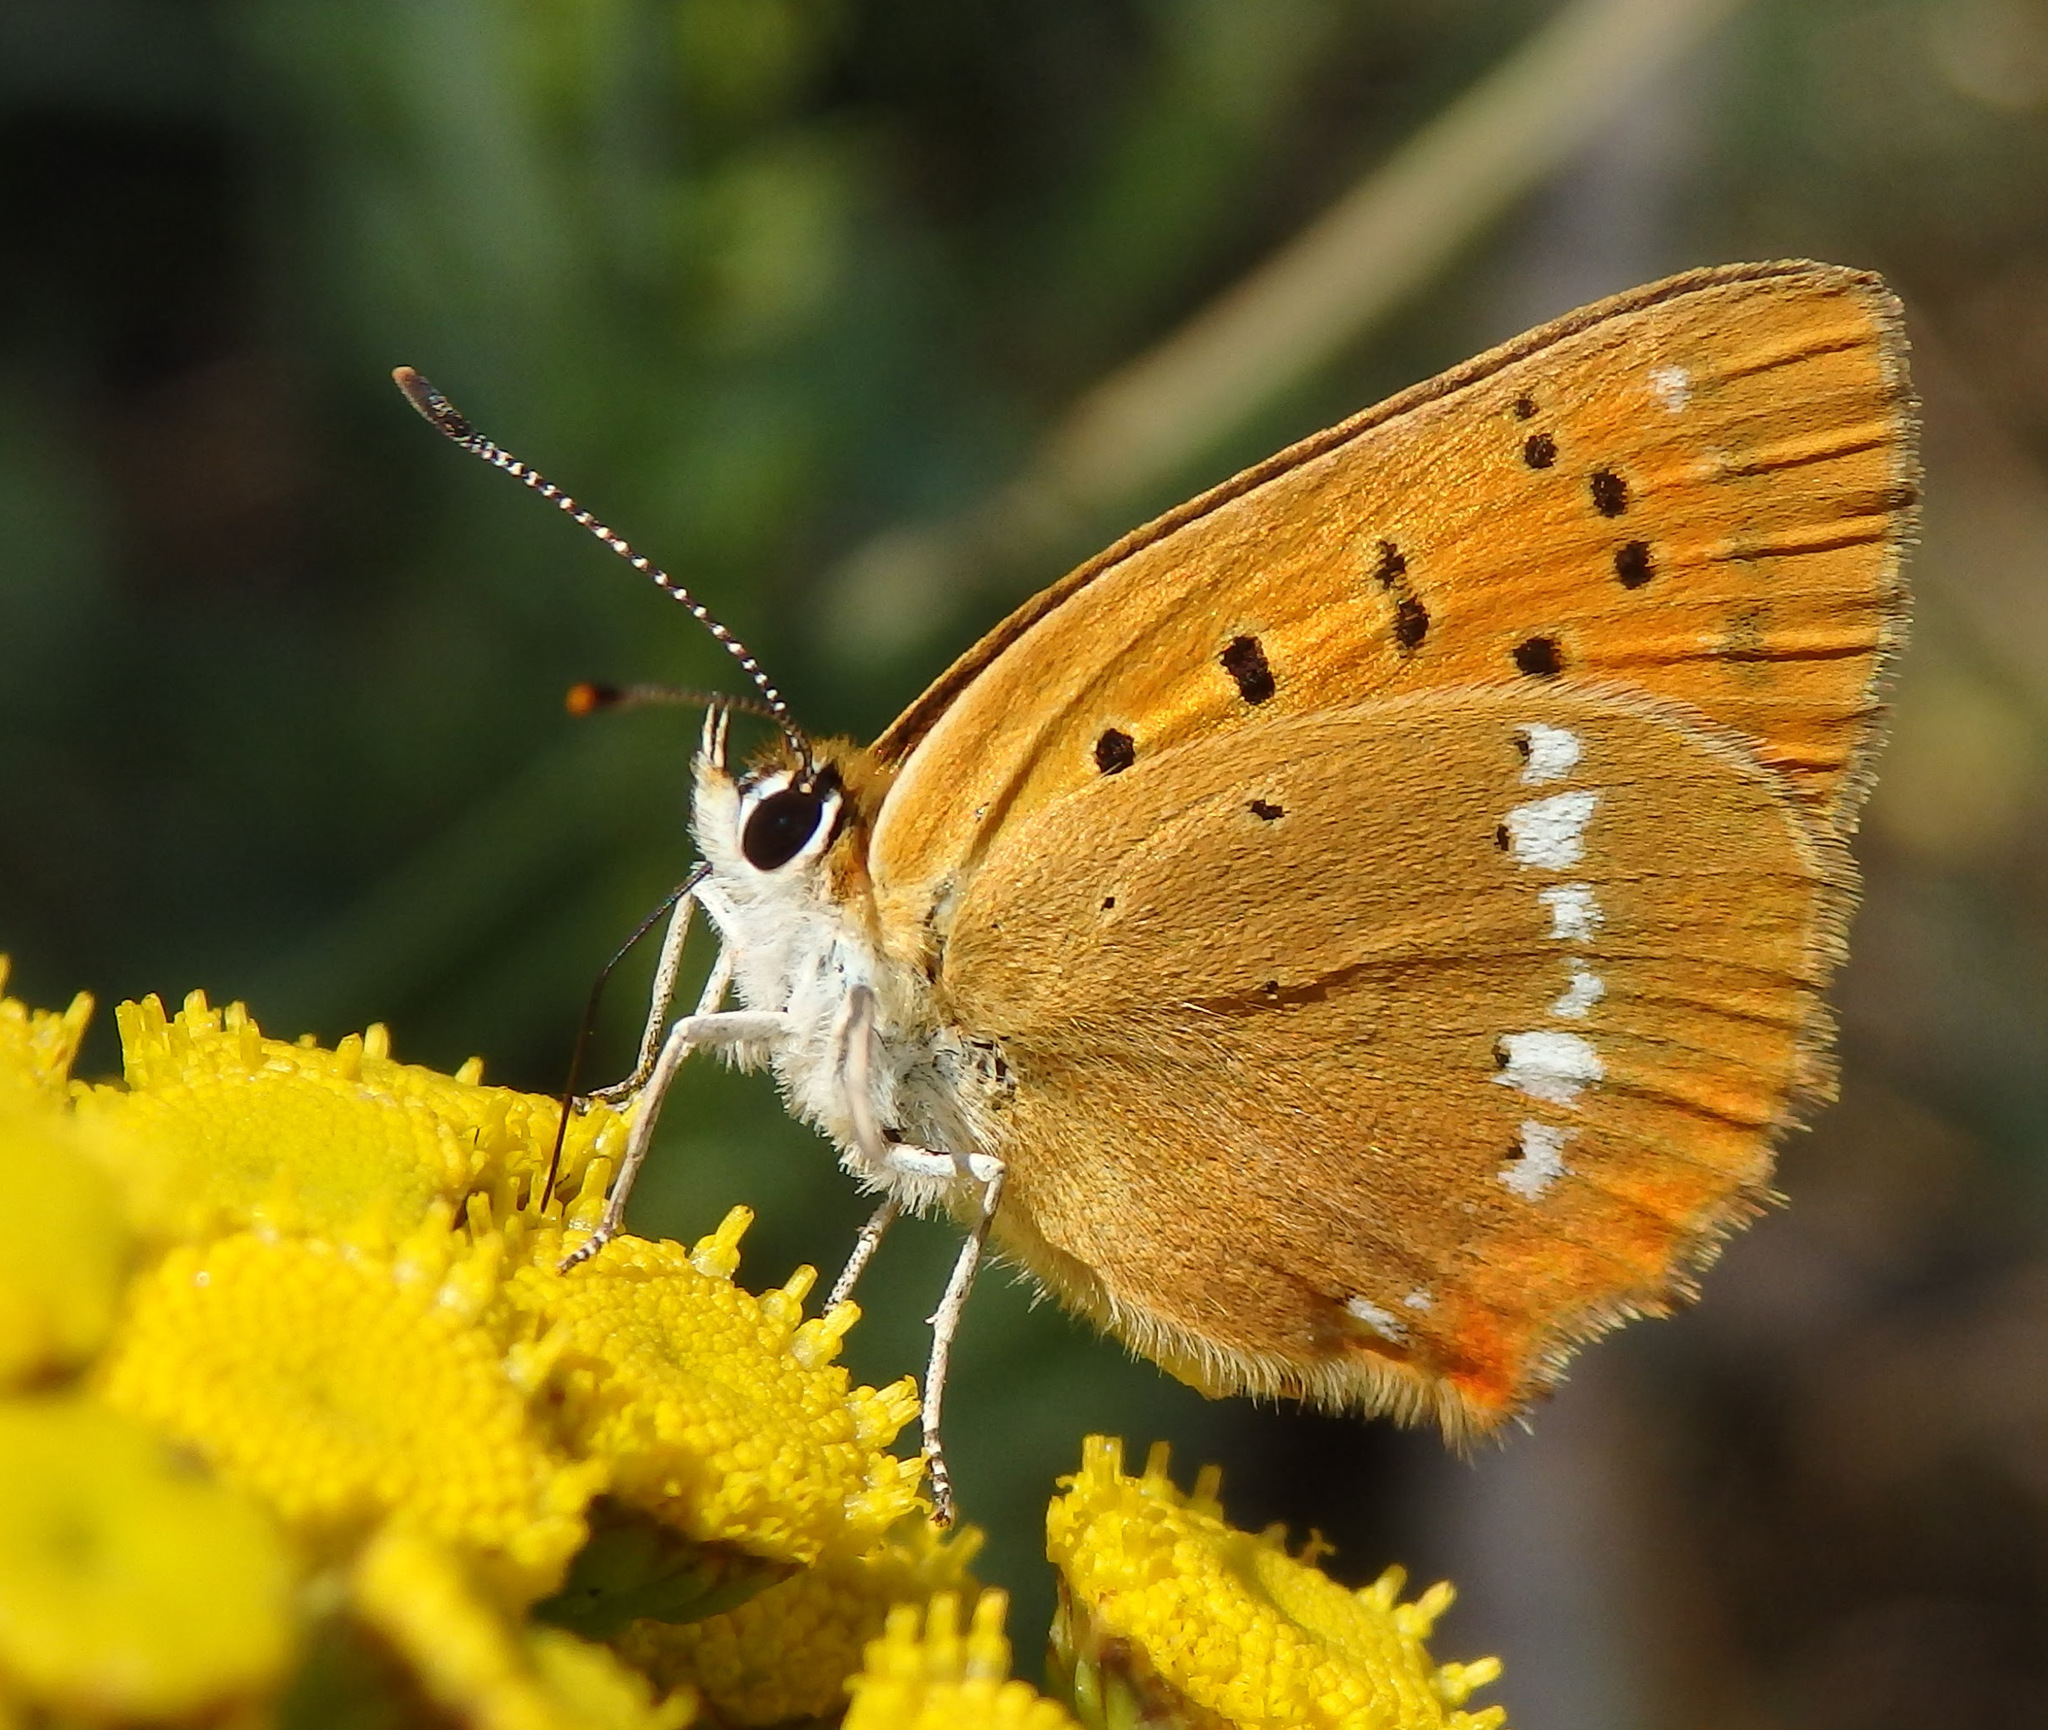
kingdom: Animalia
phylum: Arthropoda
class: Insecta
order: Lepidoptera
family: Lycaenidae
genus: Lycaena
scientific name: Lycaena virgaureae
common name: Scarce copper
